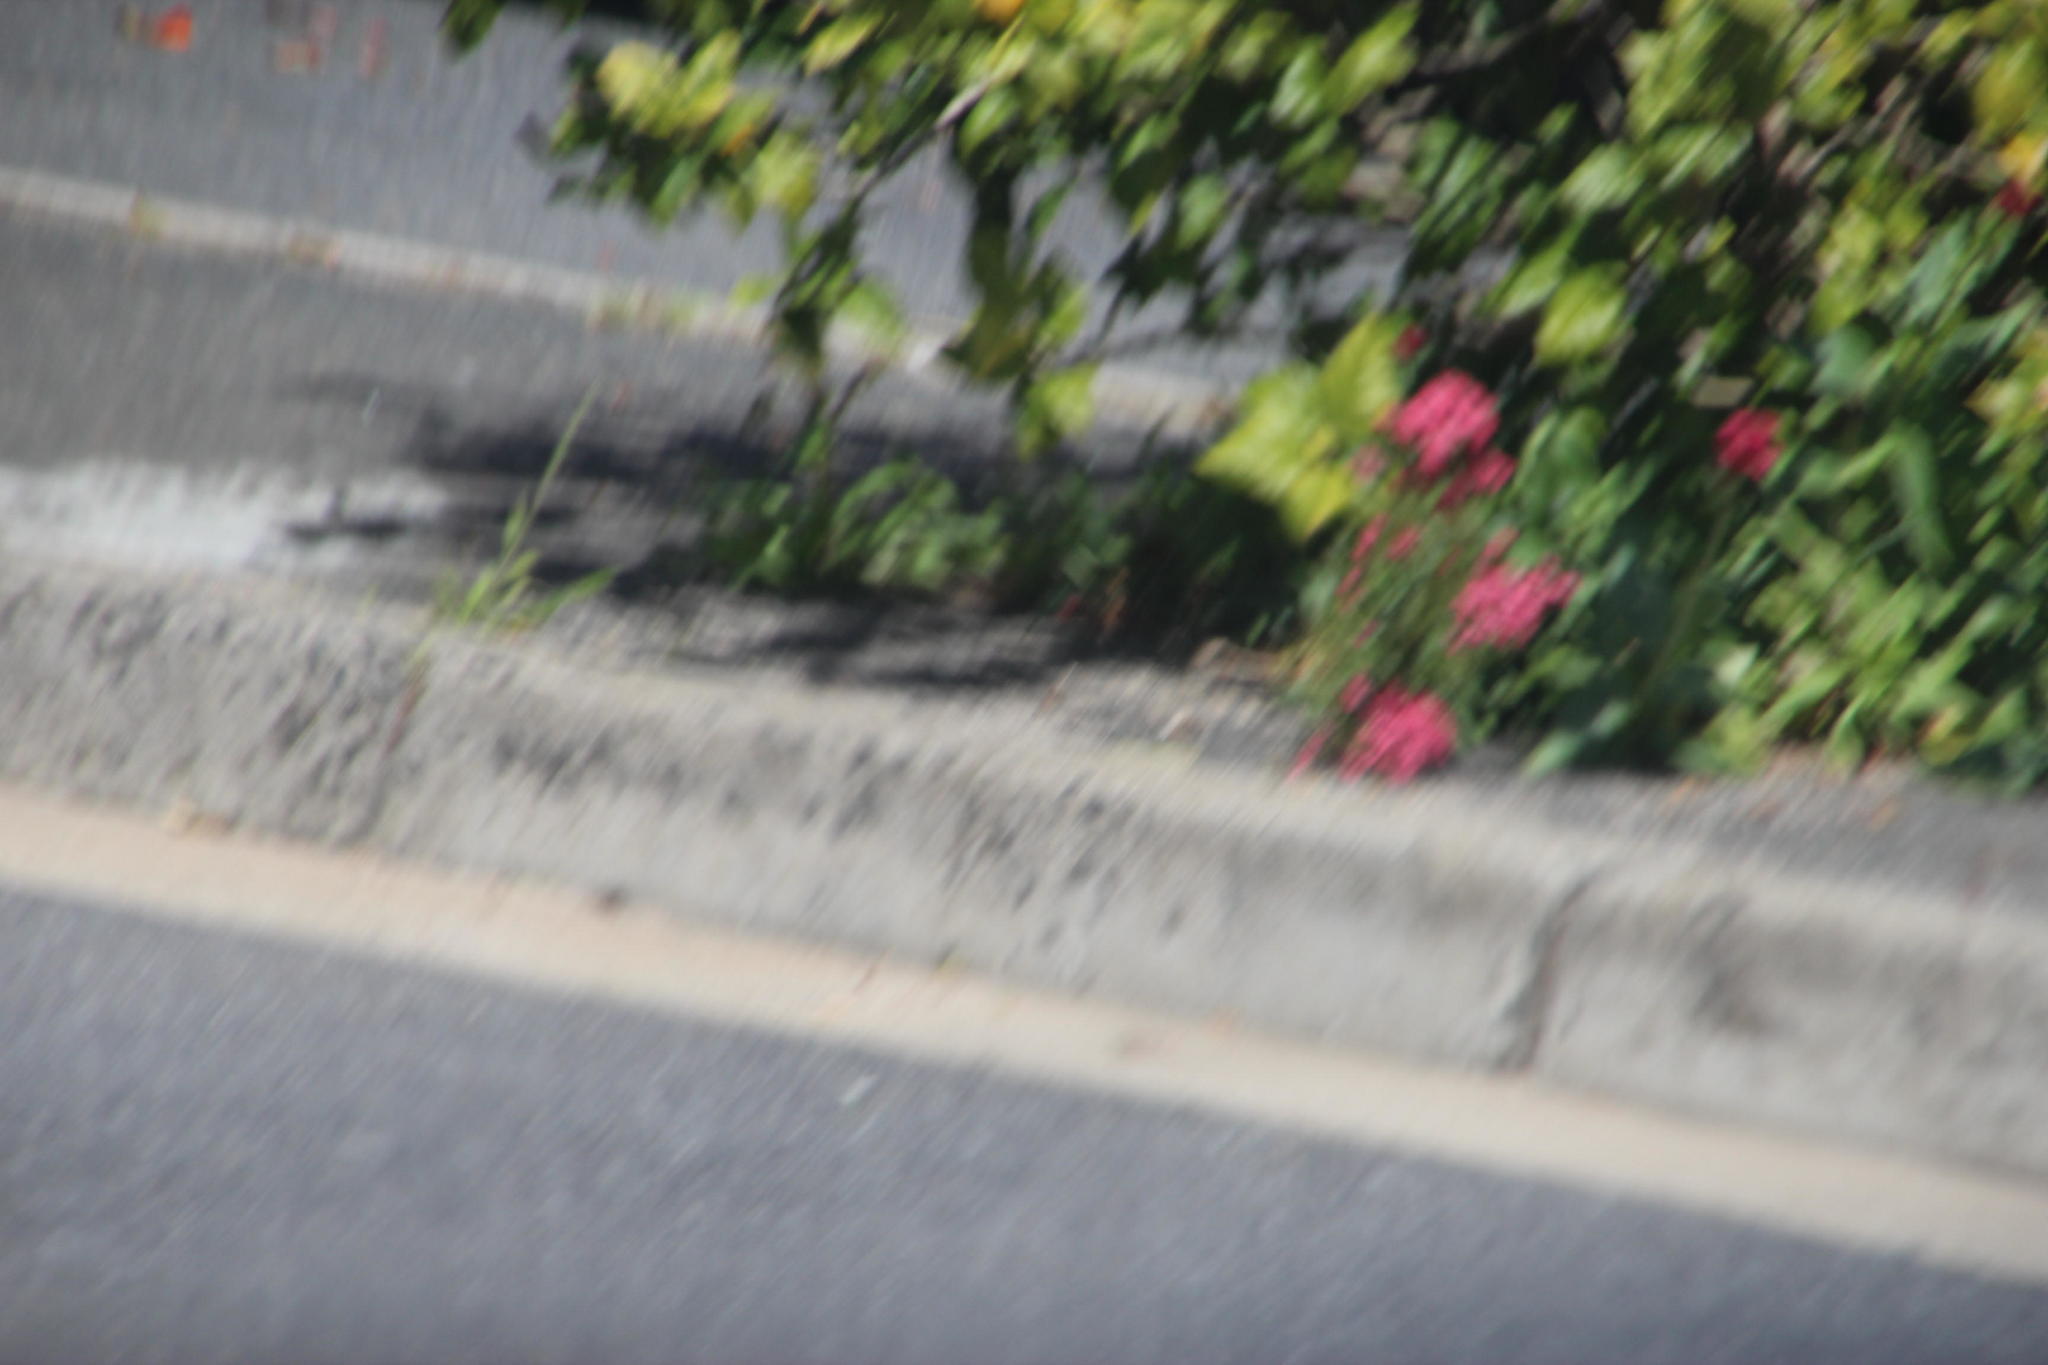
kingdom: Plantae
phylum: Tracheophyta
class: Magnoliopsida
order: Dipsacales
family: Caprifoliaceae
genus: Centranthus
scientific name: Centranthus ruber
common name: Red valerian
